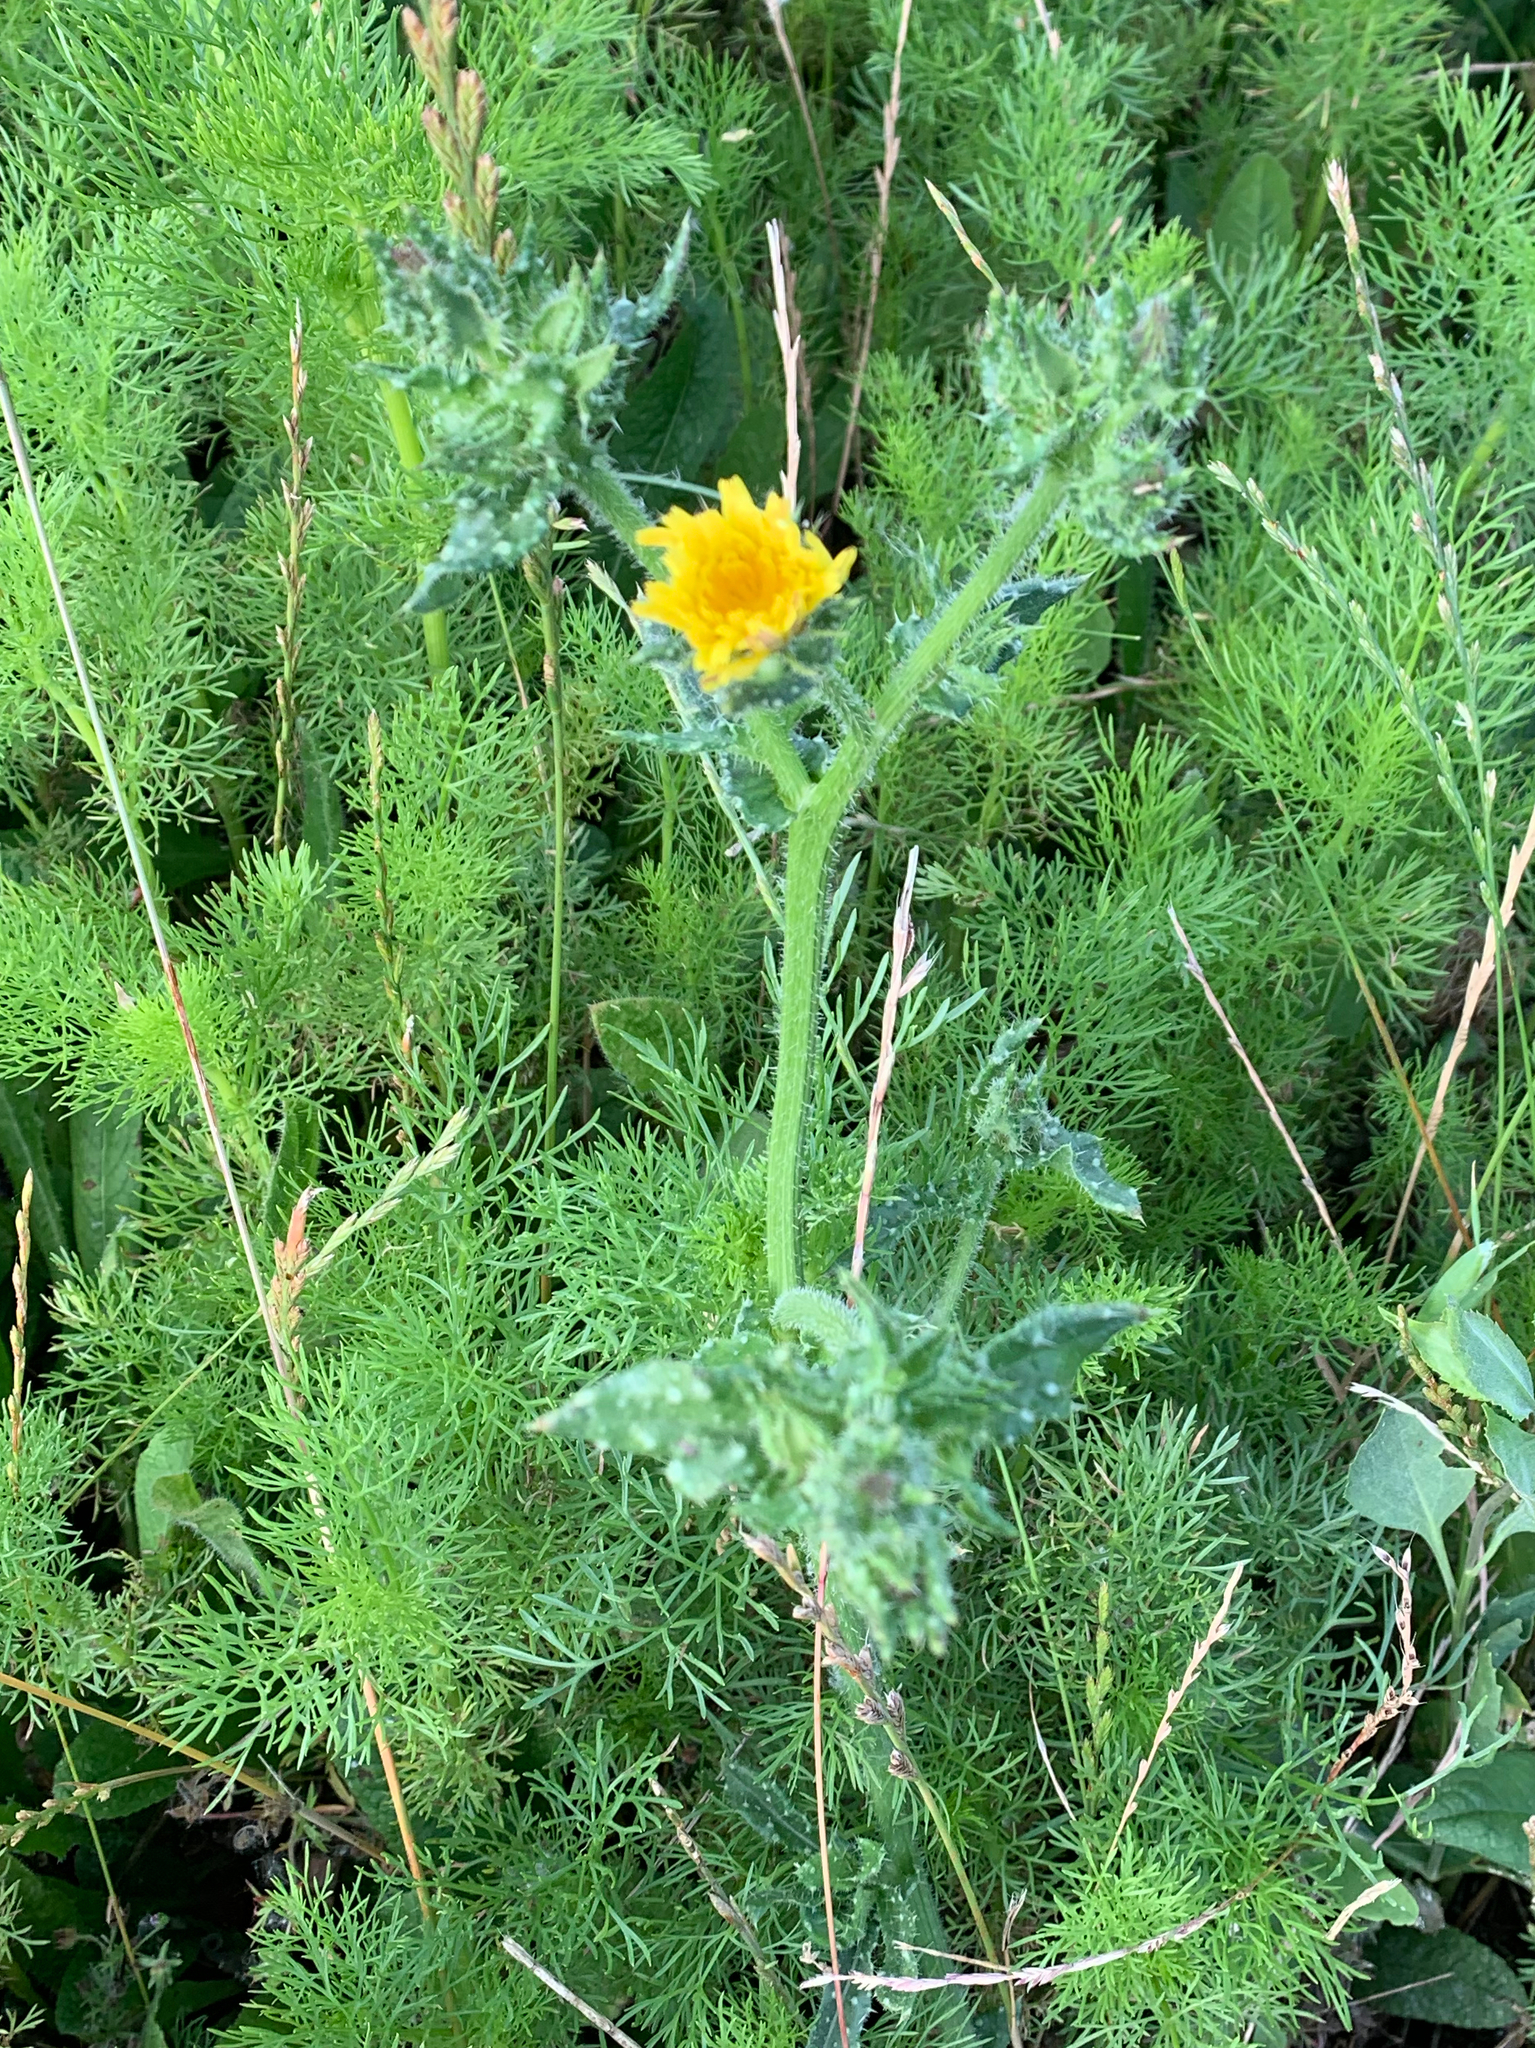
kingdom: Plantae
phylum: Tracheophyta
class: Magnoliopsida
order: Asterales
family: Asteraceae
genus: Helminthotheca
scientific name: Helminthotheca echioides
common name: Ox-tongue
